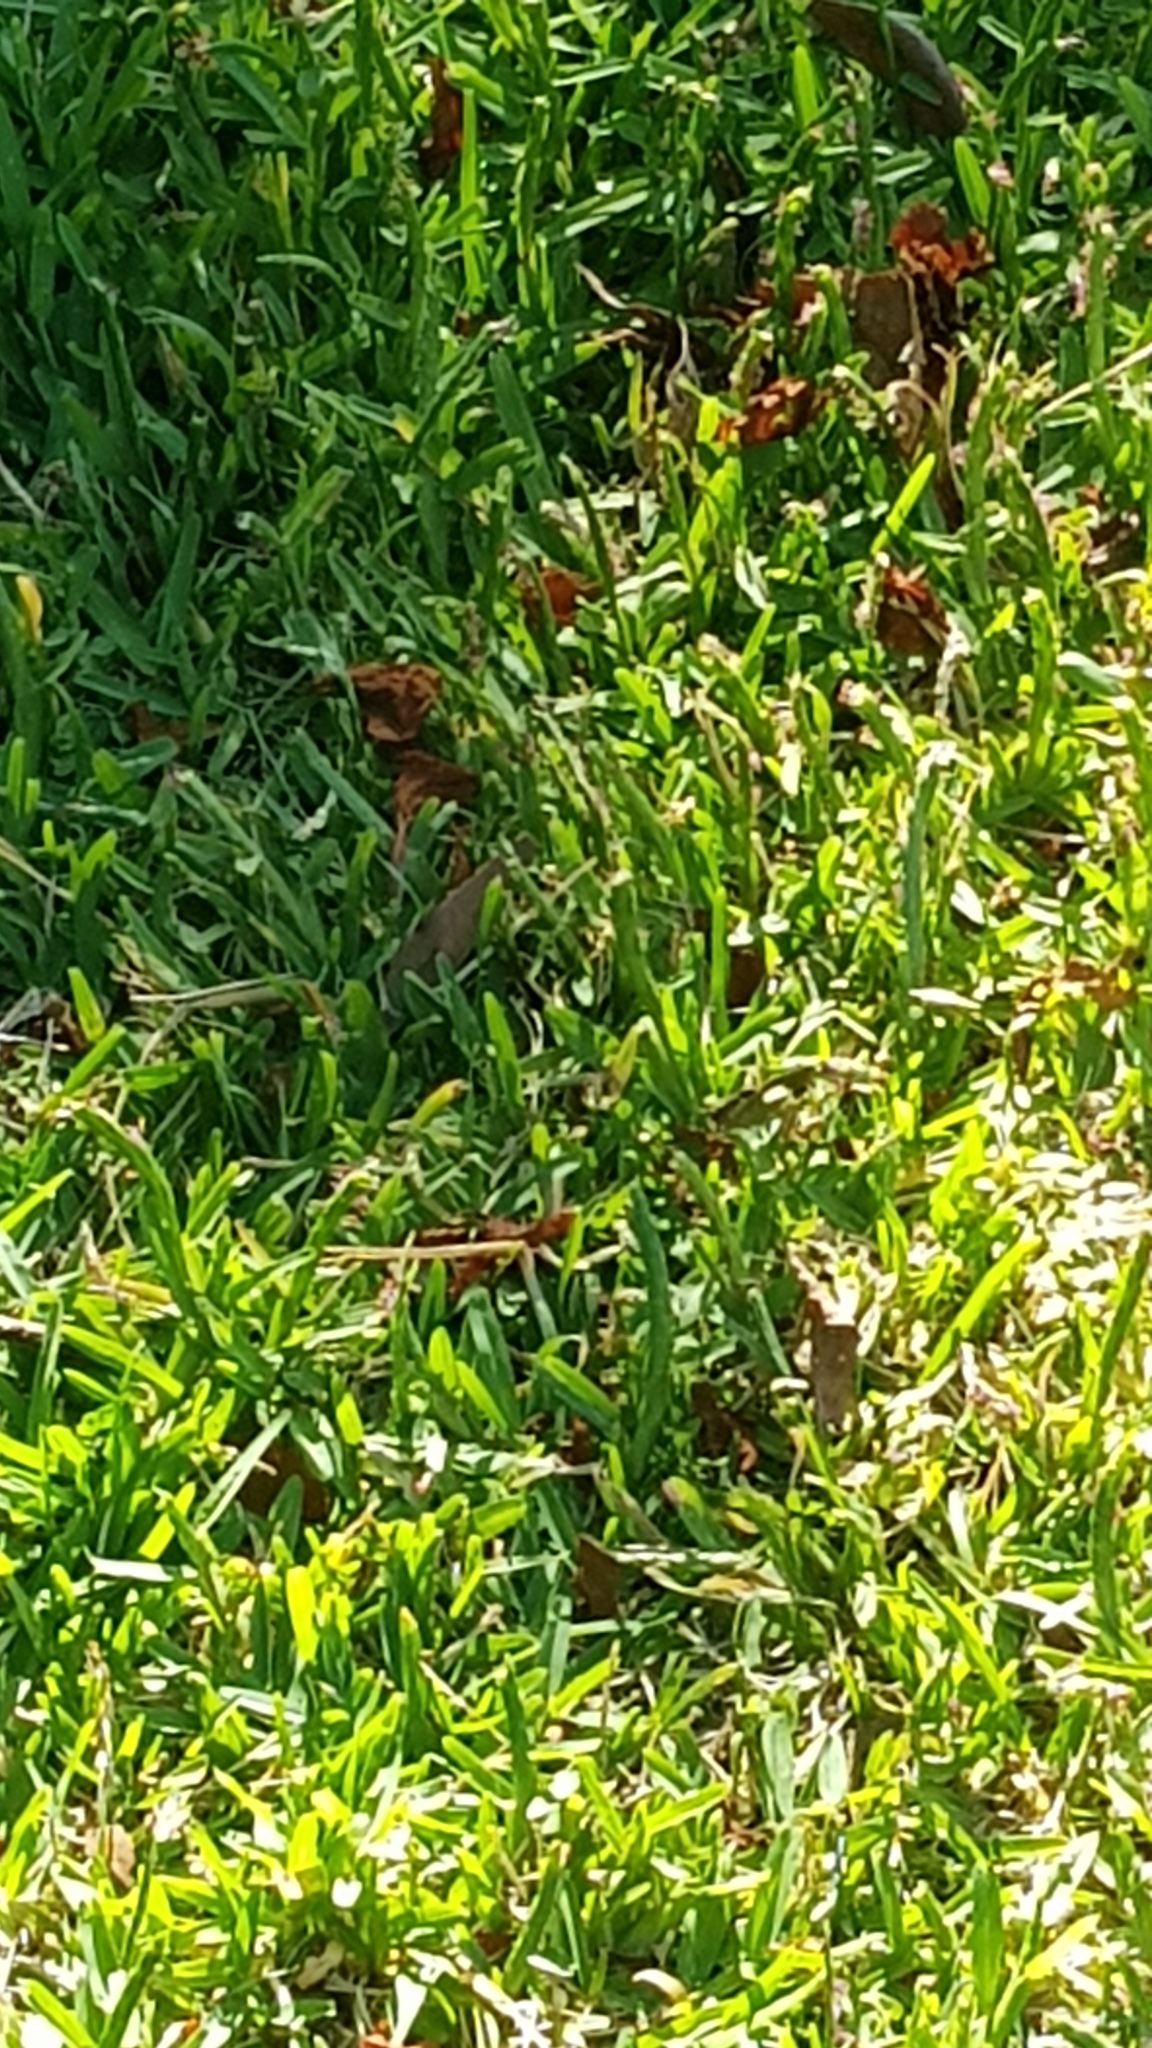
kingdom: Animalia
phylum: Arthropoda
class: Insecta
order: Lepidoptera
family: Lycaenidae
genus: Erysichton
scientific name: Erysichton lineata
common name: Hairy line blue
